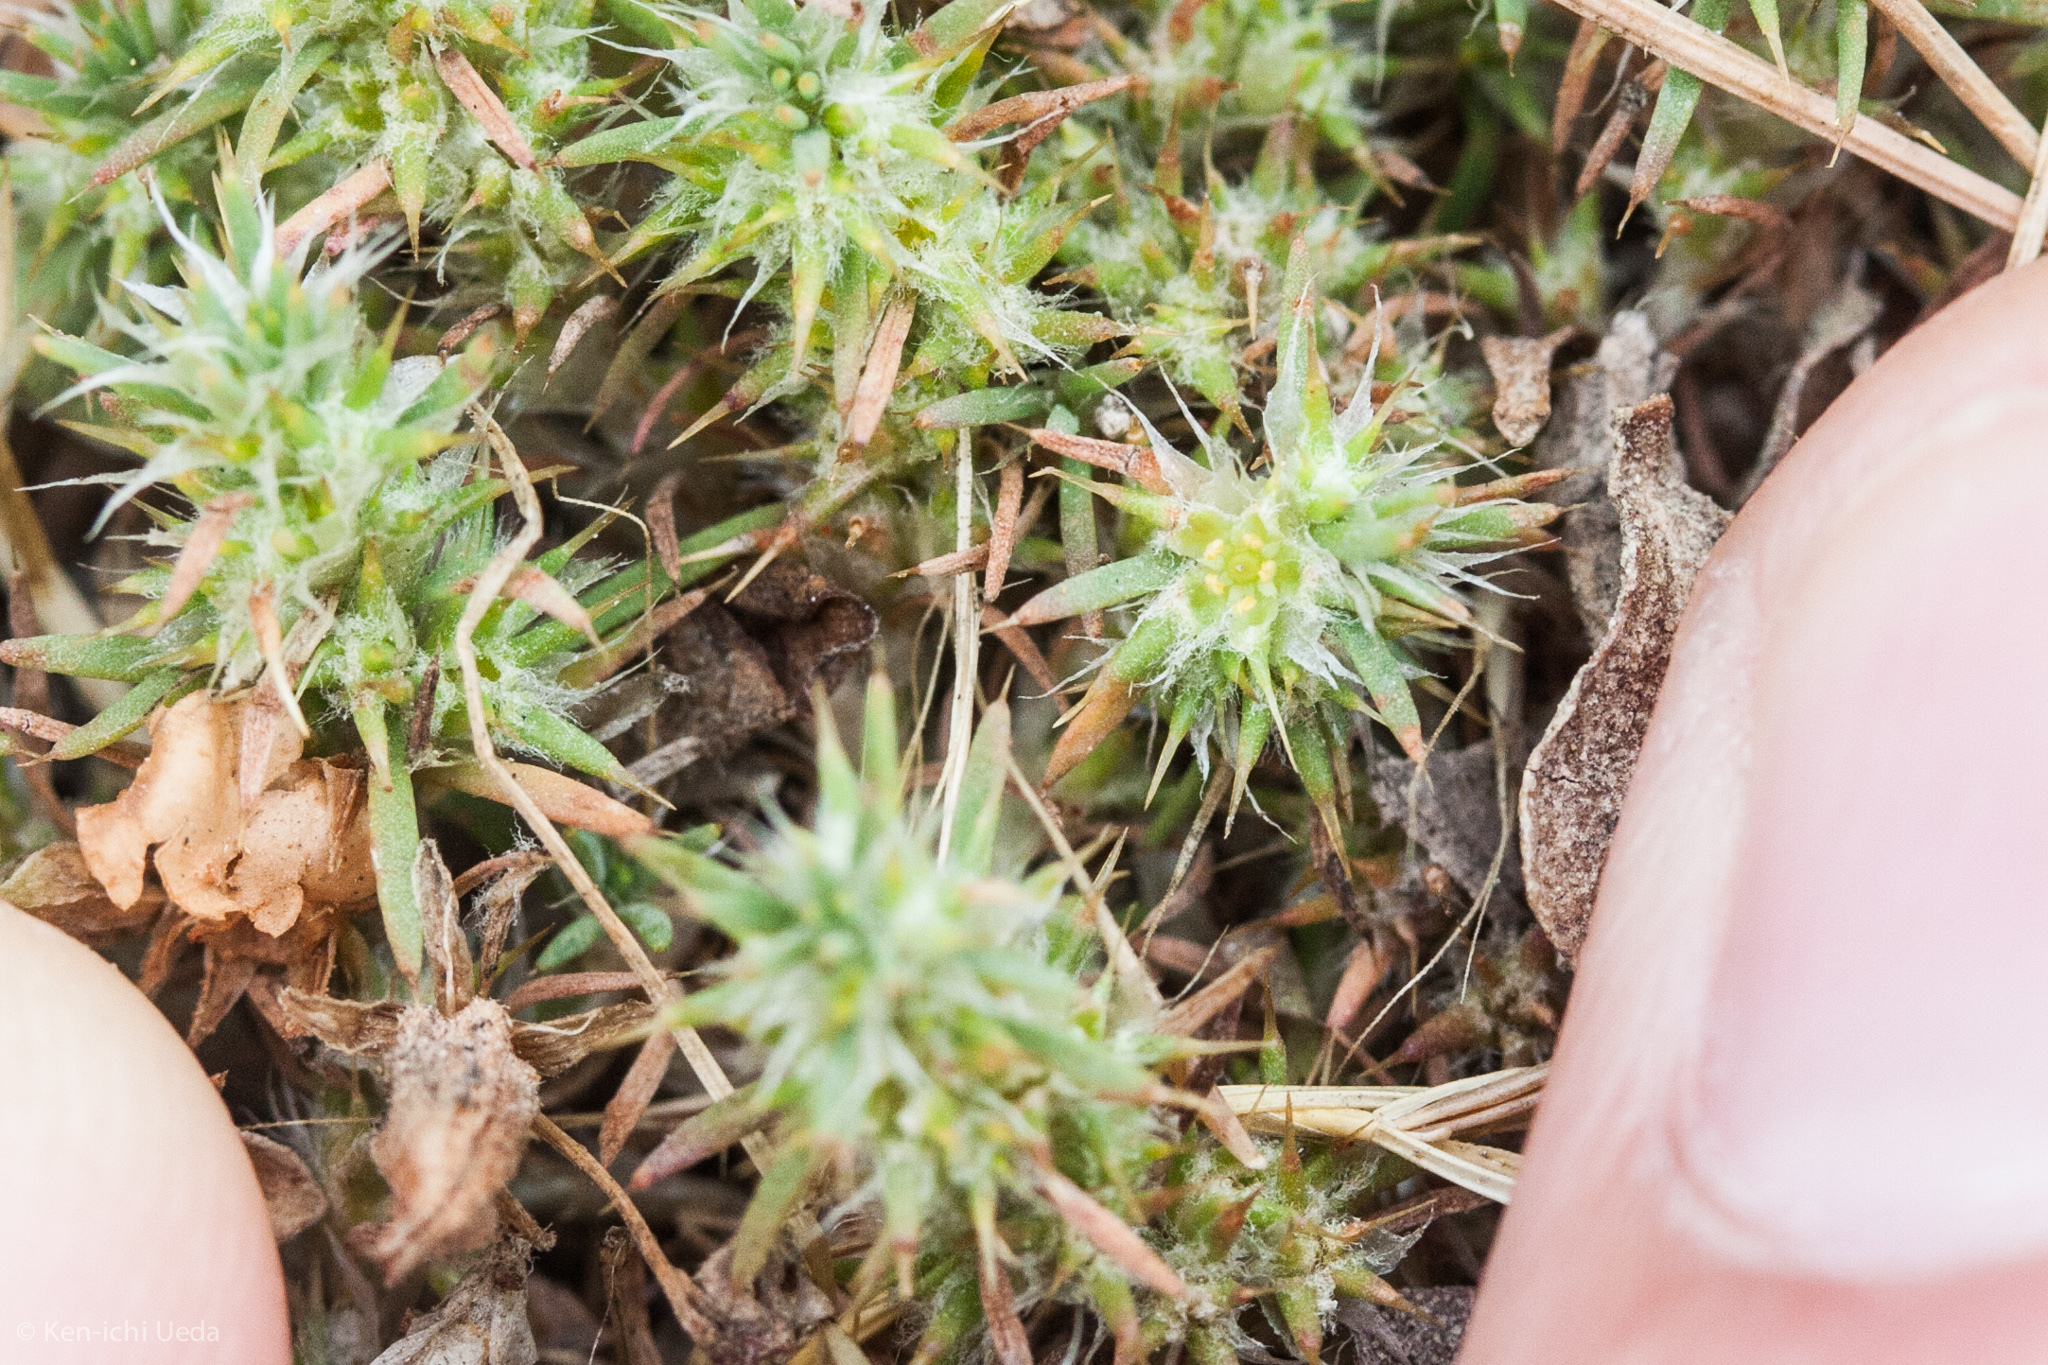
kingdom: Plantae
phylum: Tracheophyta
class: Magnoliopsida
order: Caryophyllales
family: Caryophyllaceae
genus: Cardionema
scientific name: Cardionema ramosissima
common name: Sandcarpet
